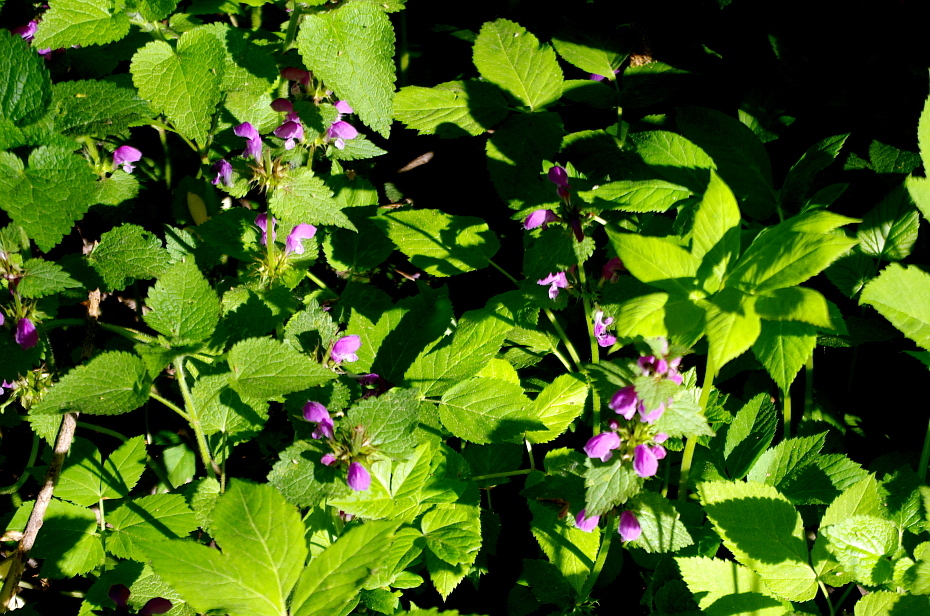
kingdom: Plantae
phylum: Tracheophyta
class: Magnoliopsida
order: Lamiales
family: Lamiaceae
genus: Lamium
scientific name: Lamium maculatum
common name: Spotted dead-nettle
